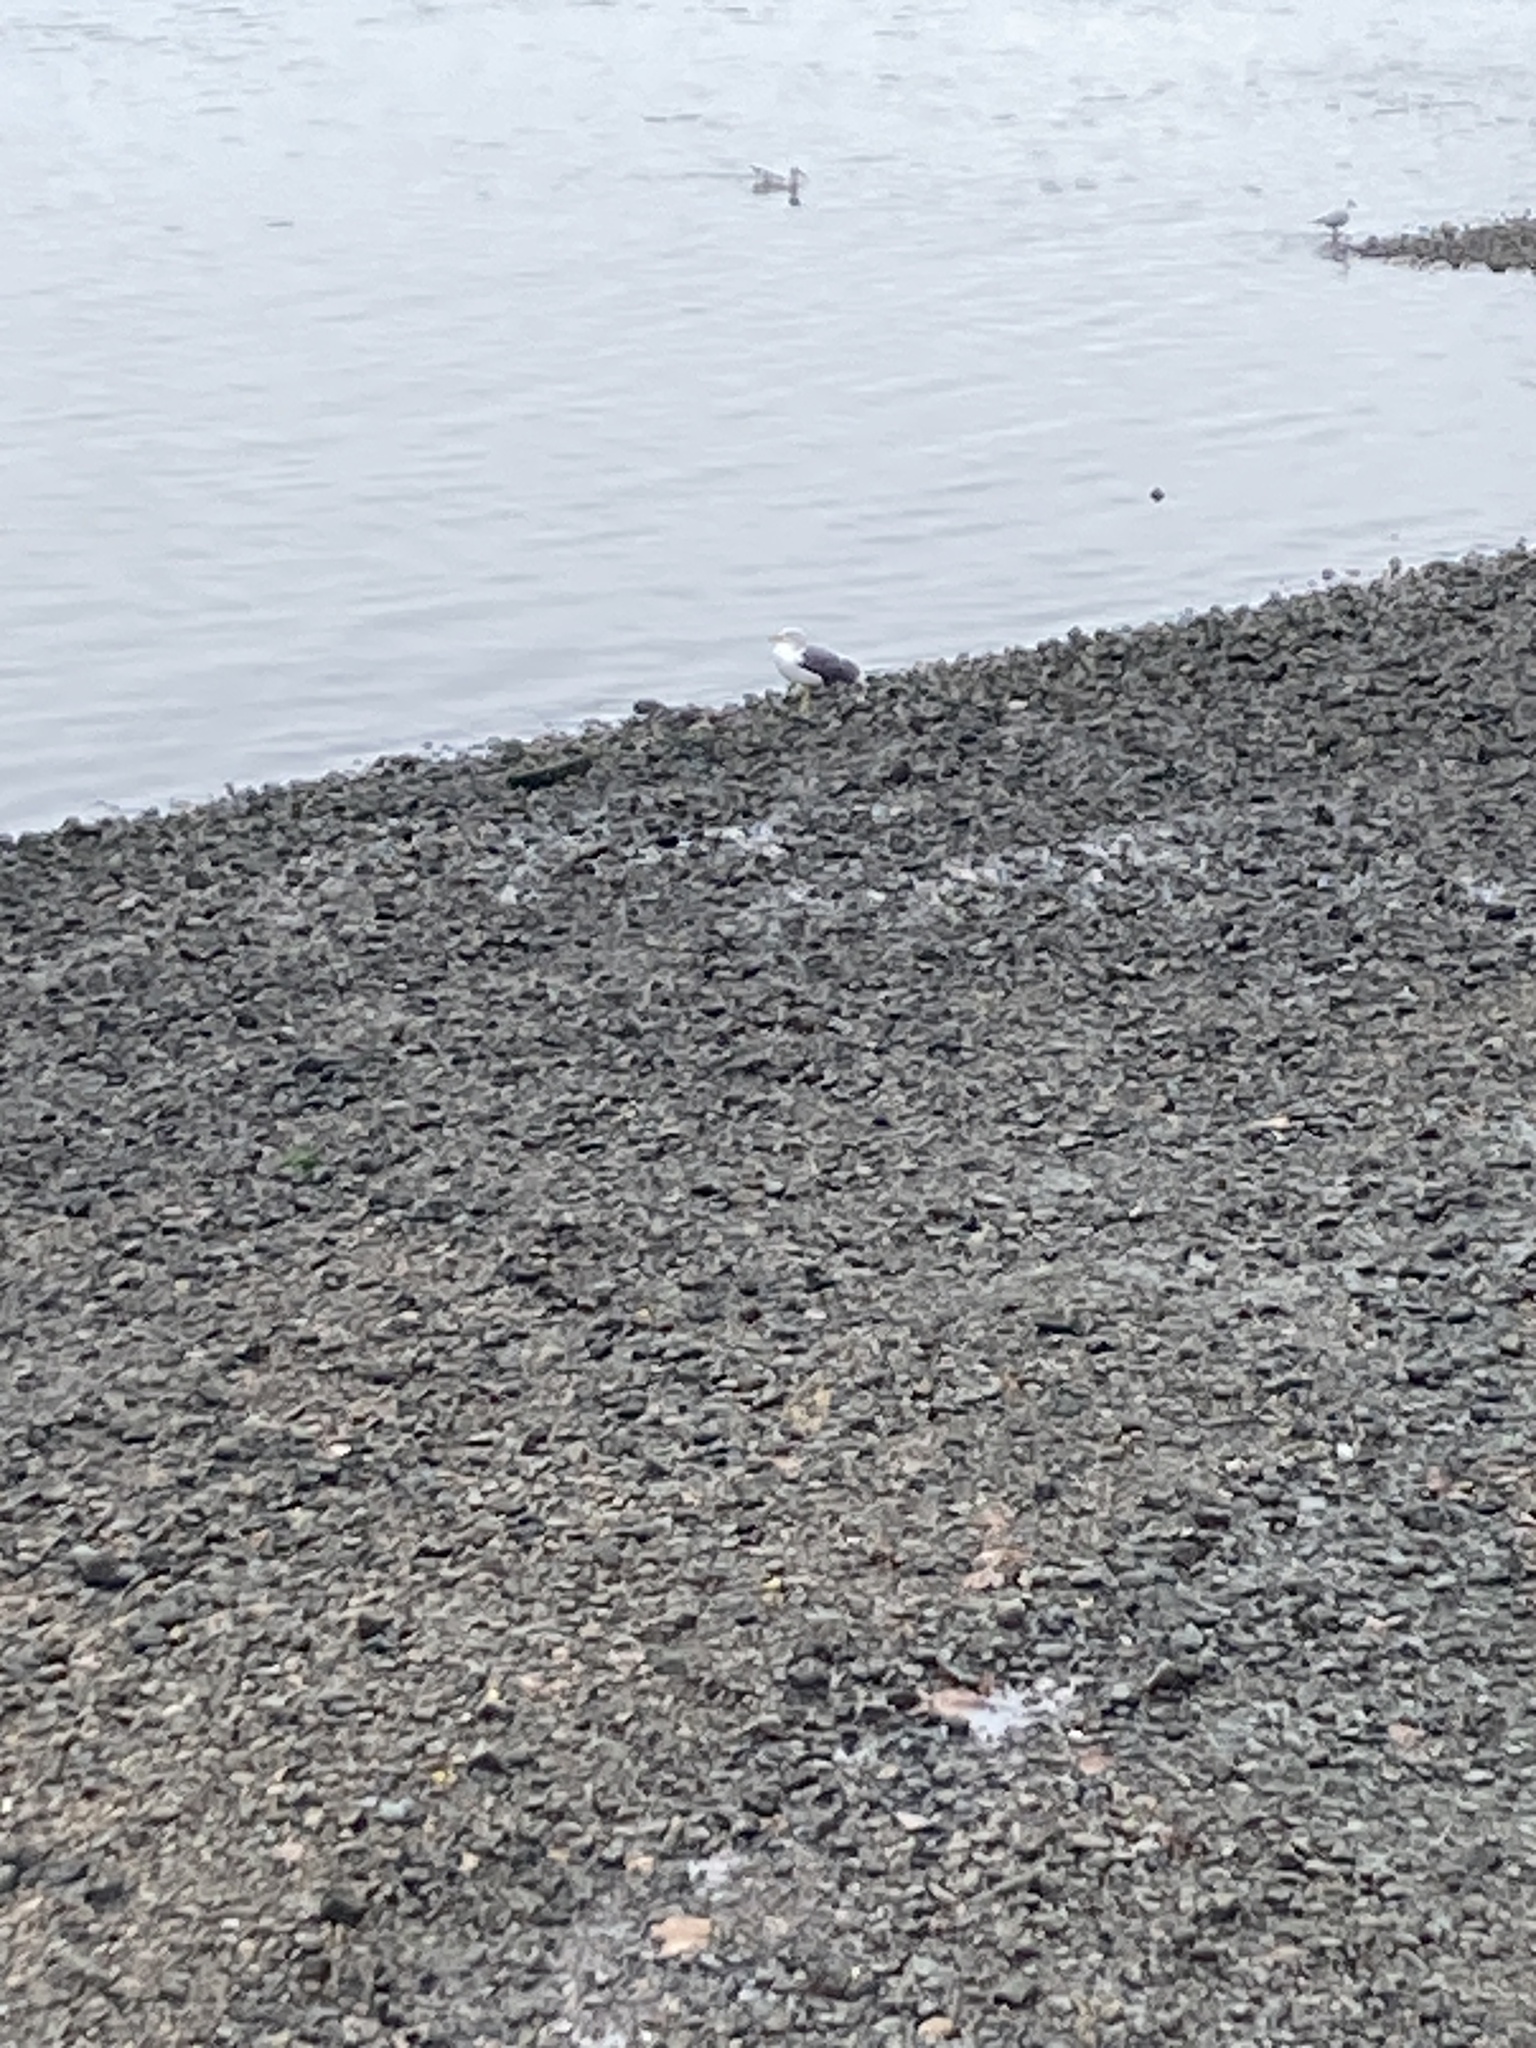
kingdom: Animalia
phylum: Chordata
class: Aves
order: Charadriiformes
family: Laridae
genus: Larus
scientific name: Larus fuscus
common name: Lesser black-backed gull
